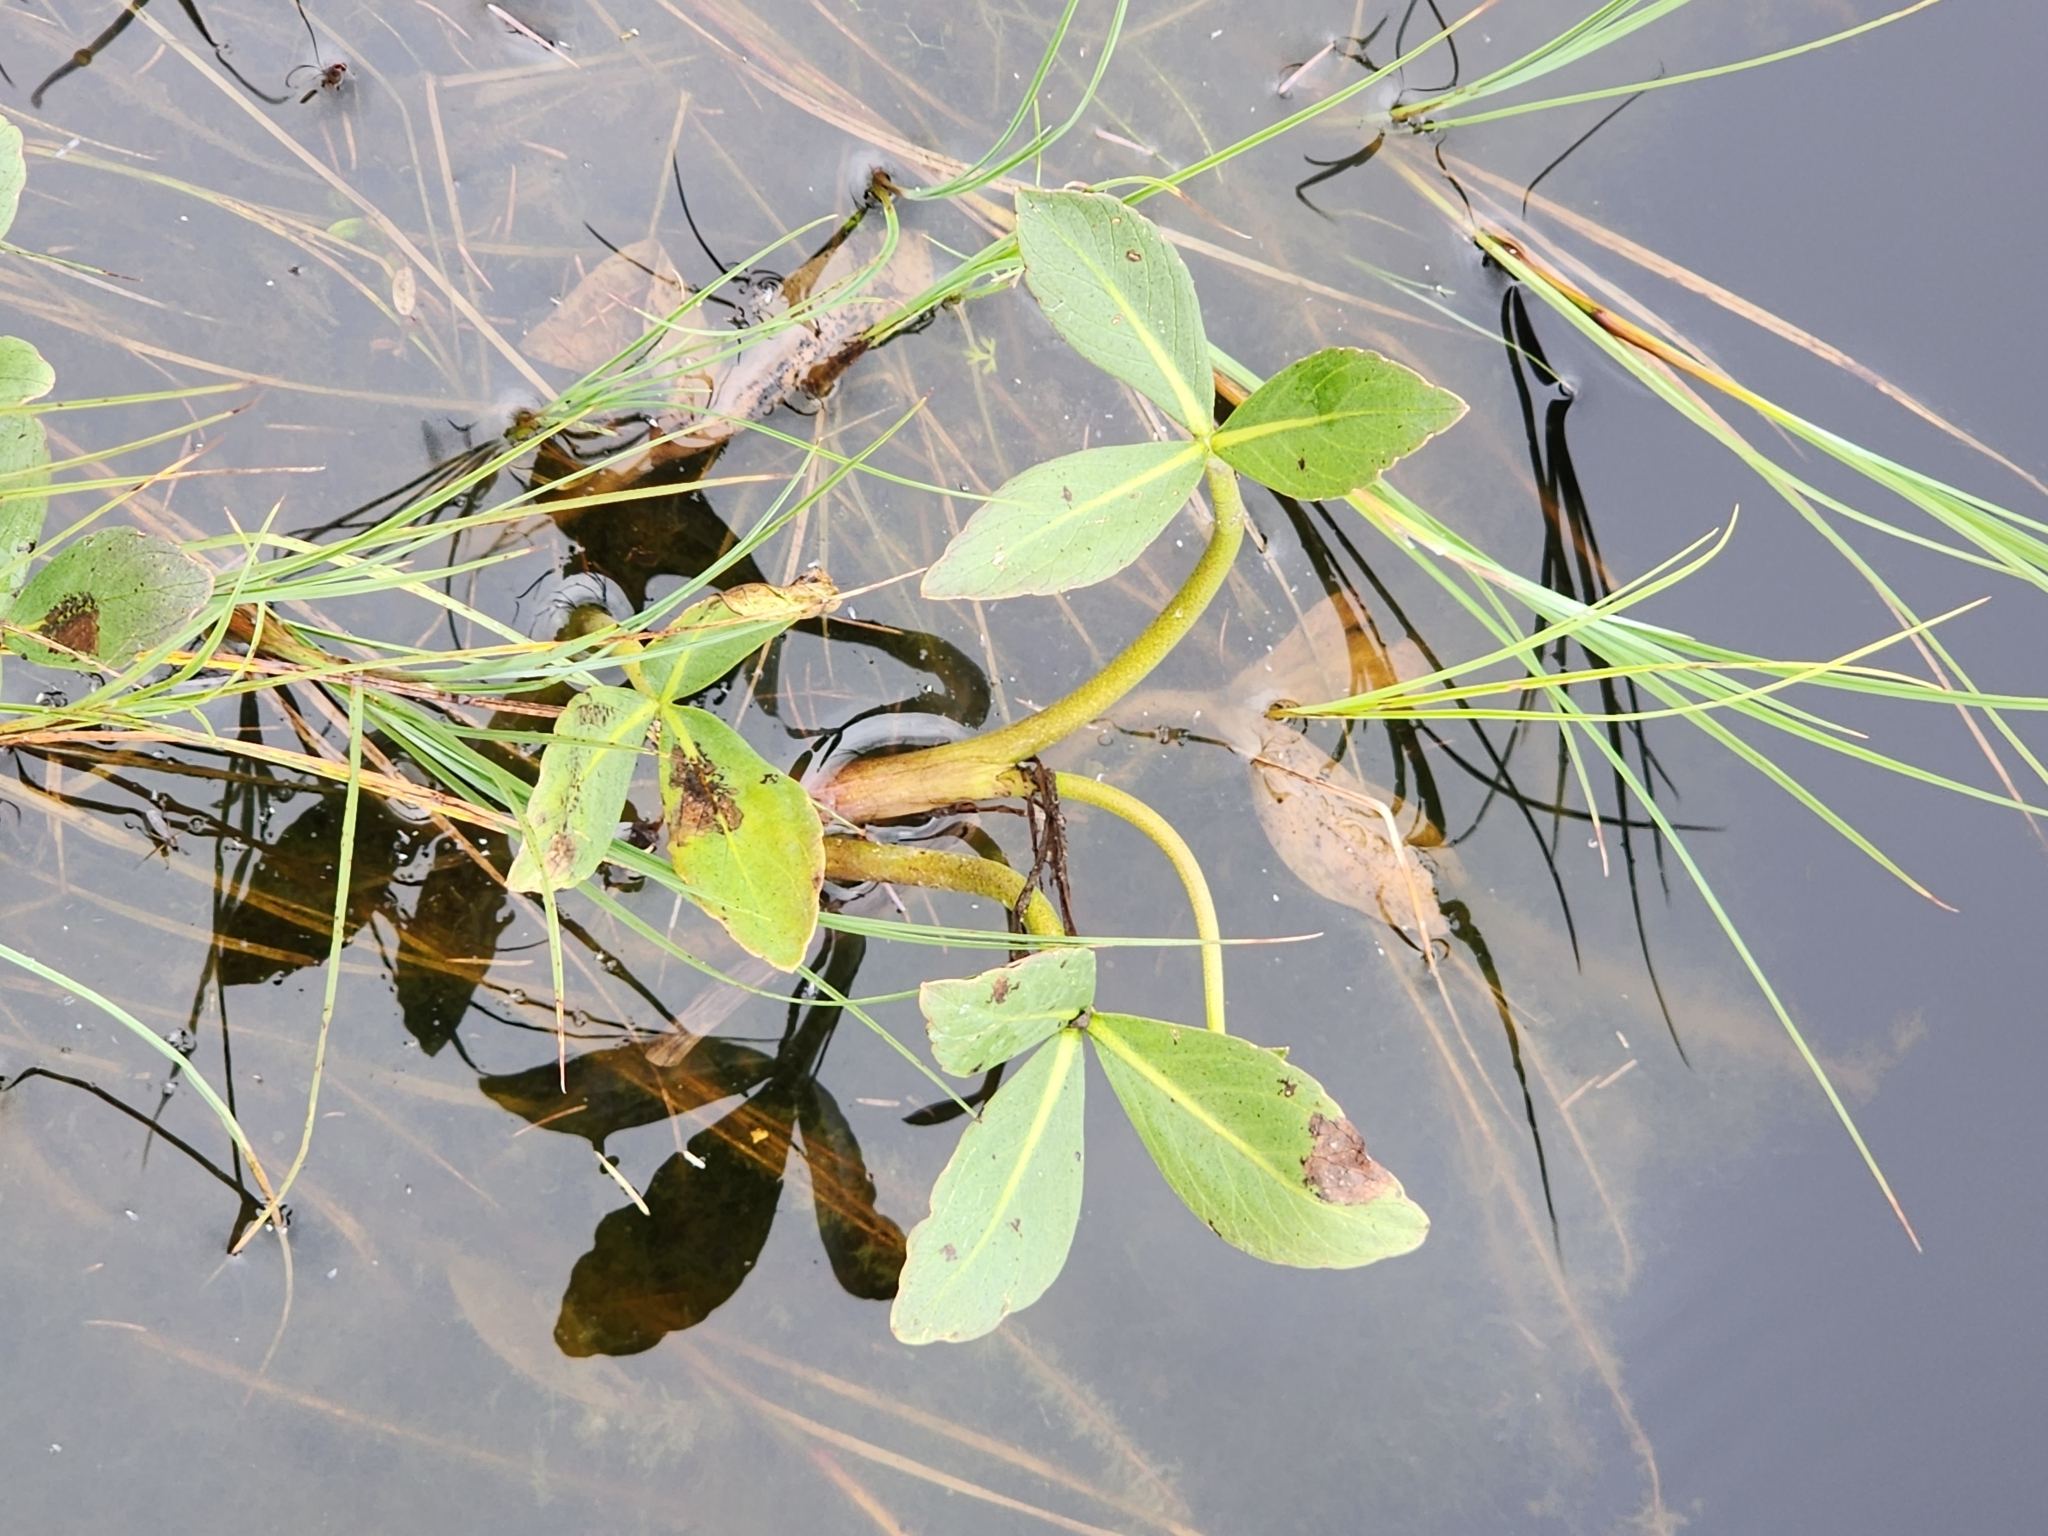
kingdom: Plantae
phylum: Tracheophyta
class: Magnoliopsida
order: Asterales
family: Menyanthaceae
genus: Menyanthes
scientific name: Menyanthes trifoliata
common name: Bogbean
